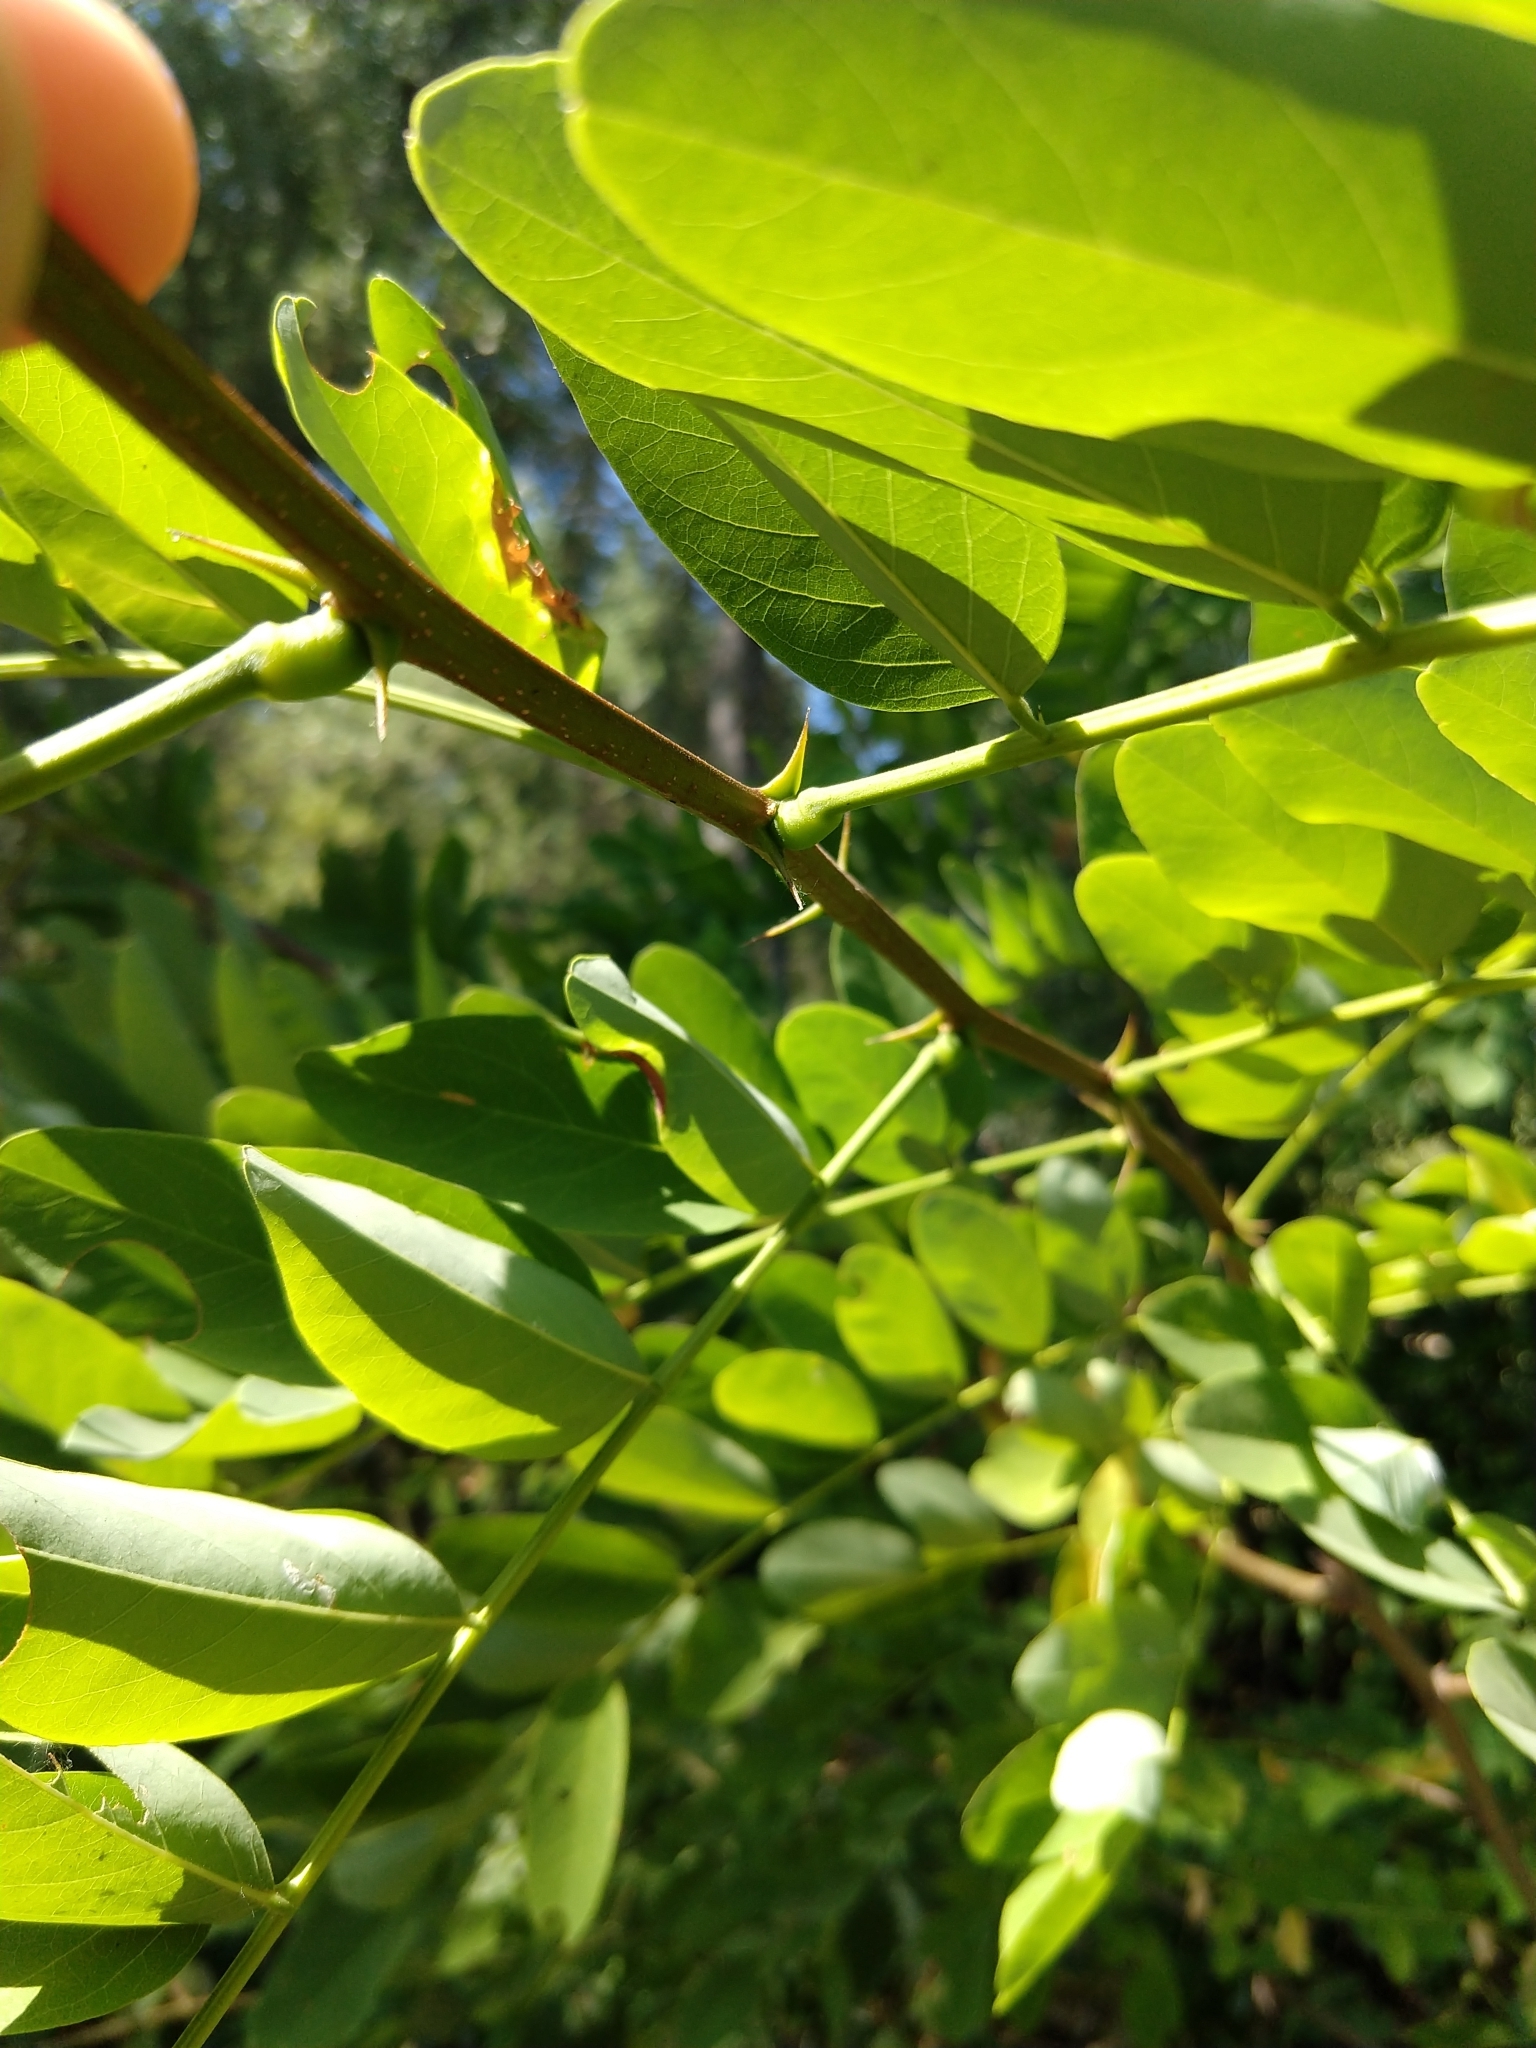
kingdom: Plantae
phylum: Tracheophyta
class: Magnoliopsida
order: Fabales
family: Fabaceae
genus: Robinia
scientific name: Robinia pseudoacacia
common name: Black locust
